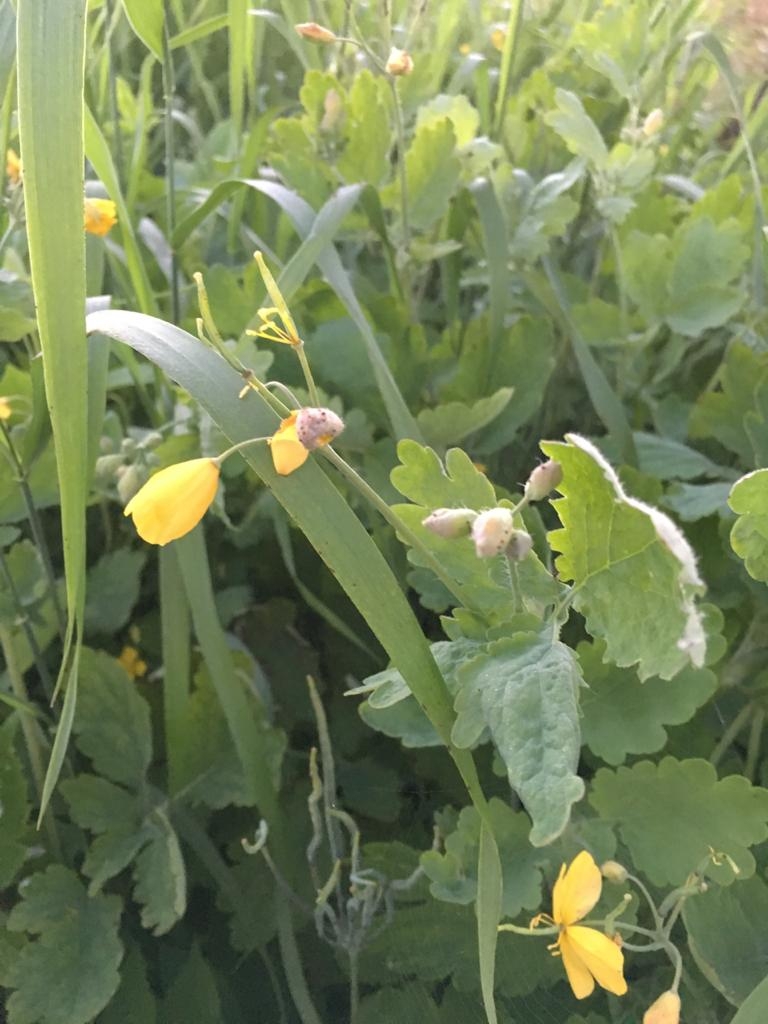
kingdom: Plantae
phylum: Tracheophyta
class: Magnoliopsida
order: Ranunculales
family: Papaveraceae
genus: Chelidonium
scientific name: Chelidonium majus
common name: Greater celandine
